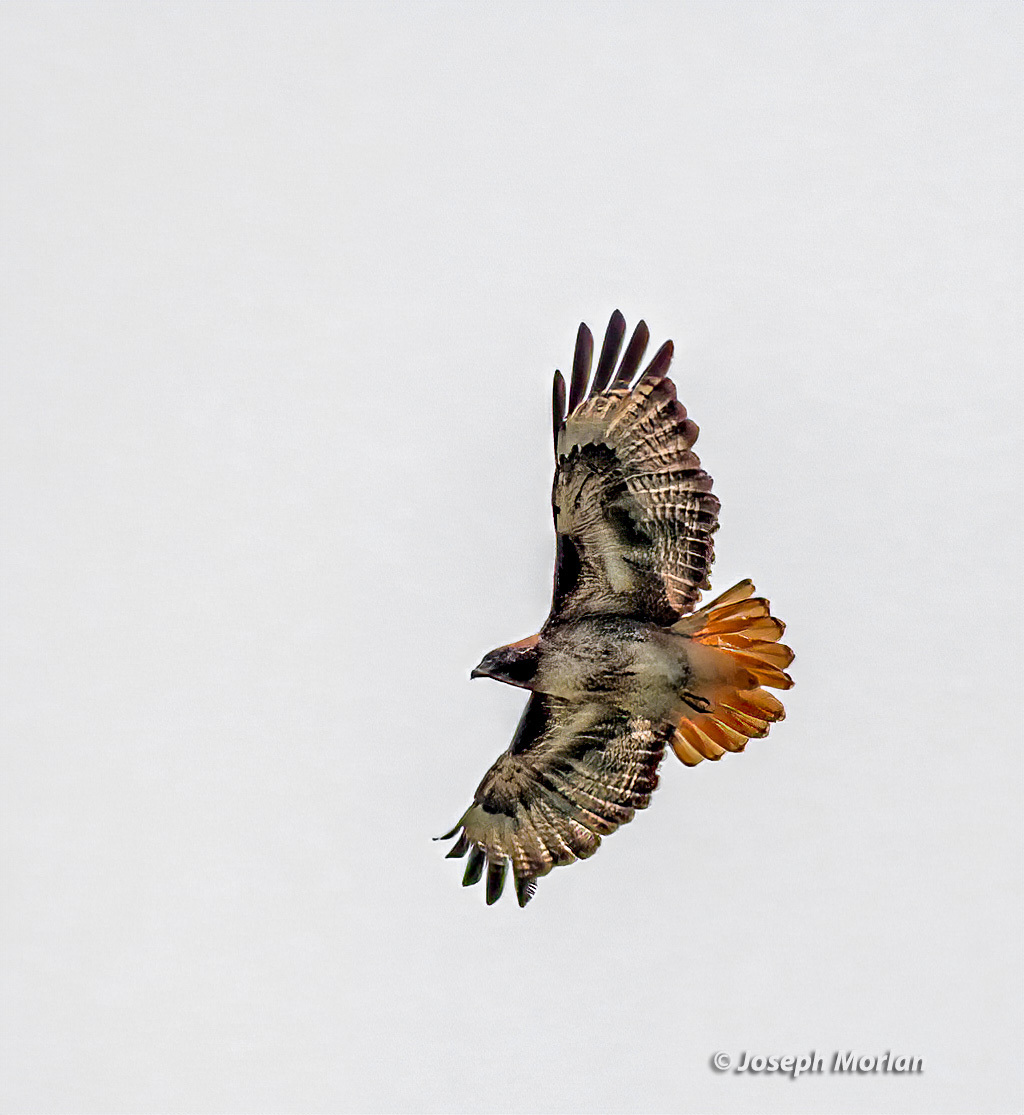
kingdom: Animalia
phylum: Chordata
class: Aves
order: Accipitriformes
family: Accipitridae
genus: Buteo
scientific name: Buteo jamaicensis
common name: Red-tailed hawk
